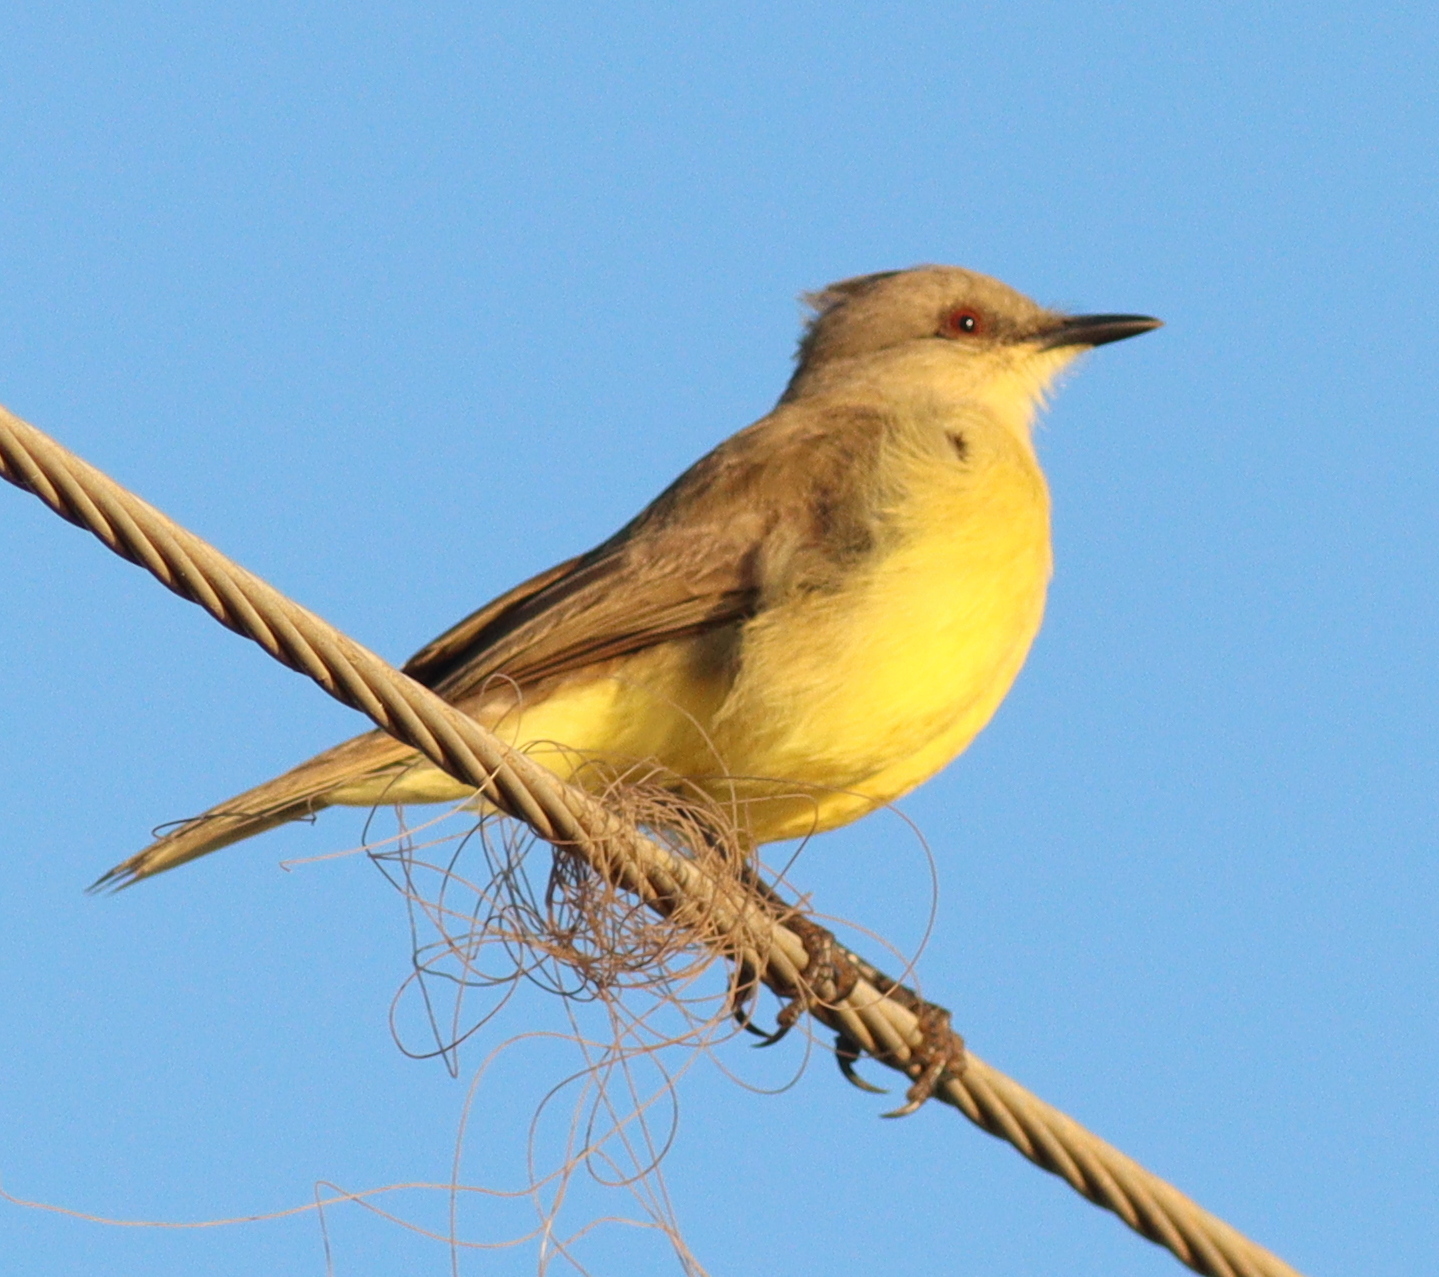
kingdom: Animalia
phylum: Chordata
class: Aves
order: Passeriformes
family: Tyrannidae
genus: Machetornis
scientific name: Machetornis rixosa
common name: Cattle tyrant
